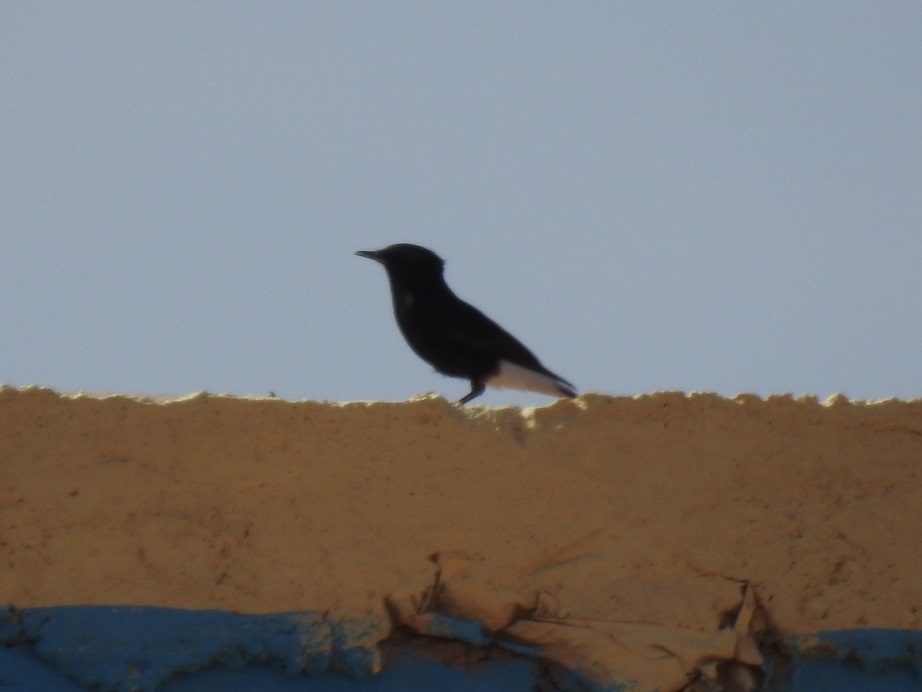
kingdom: Animalia
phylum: Chordata
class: Aves
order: Passeriformes
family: Muscicapidae
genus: Oenanthe
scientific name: Oenanthe leucopyga
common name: White-crowned wheatear
